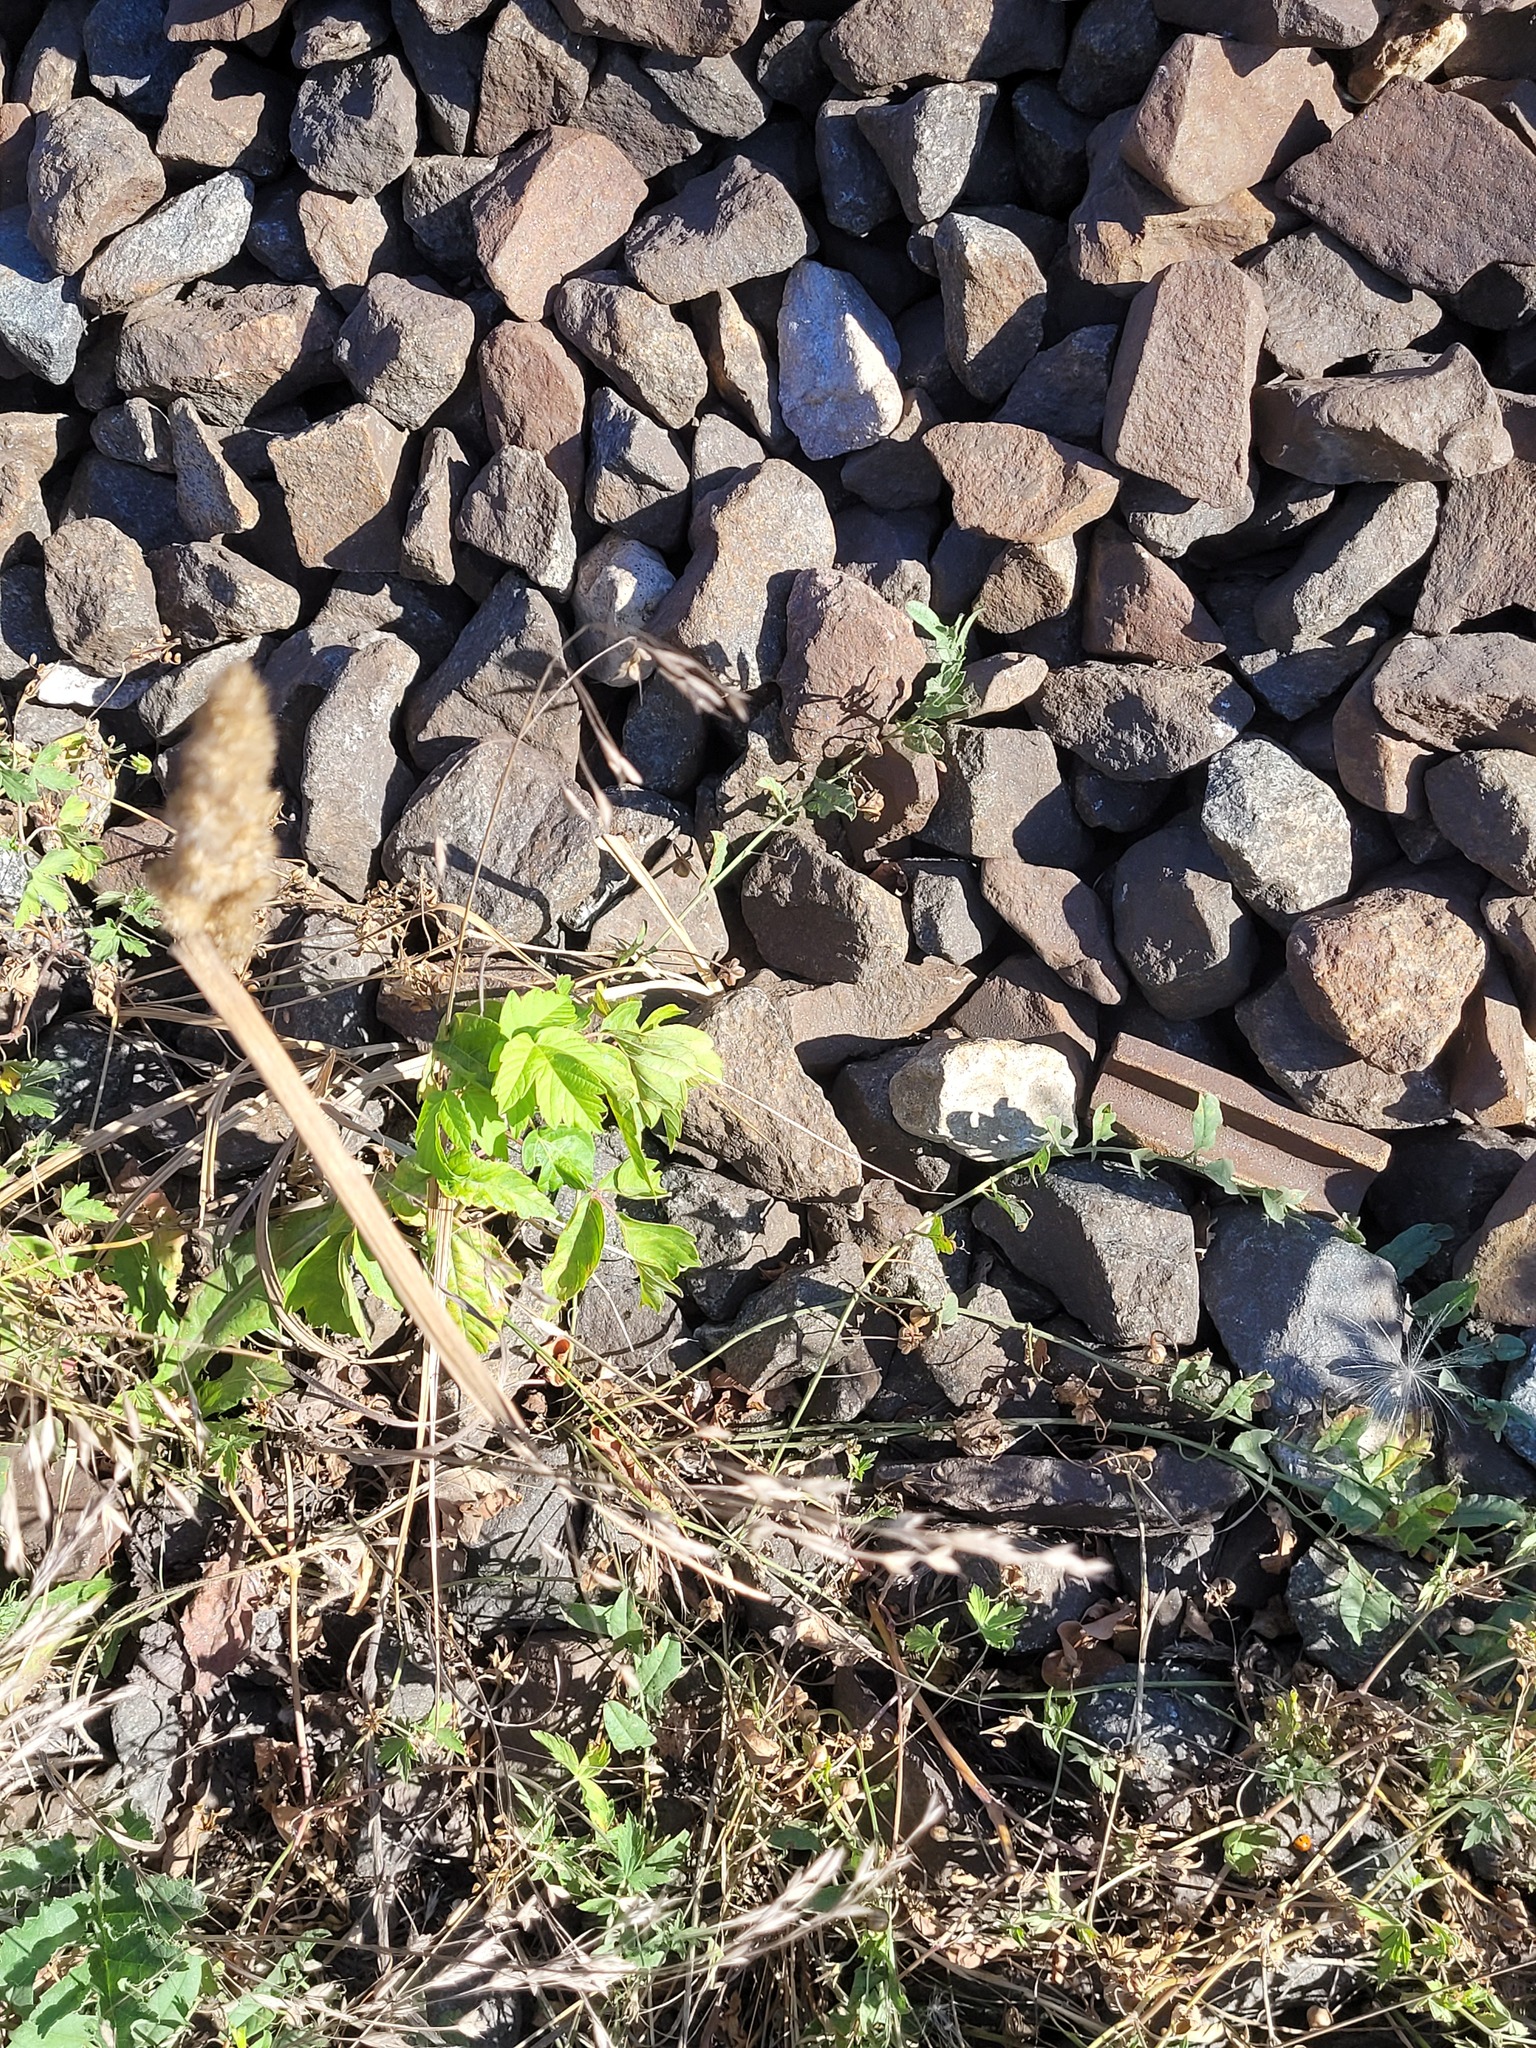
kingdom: Plantae
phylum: Tracheophyta
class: Magnoliopsida
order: Sapindales
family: Sapindaceae
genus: Acer
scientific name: Acer negundo
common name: Ashleaf maple
